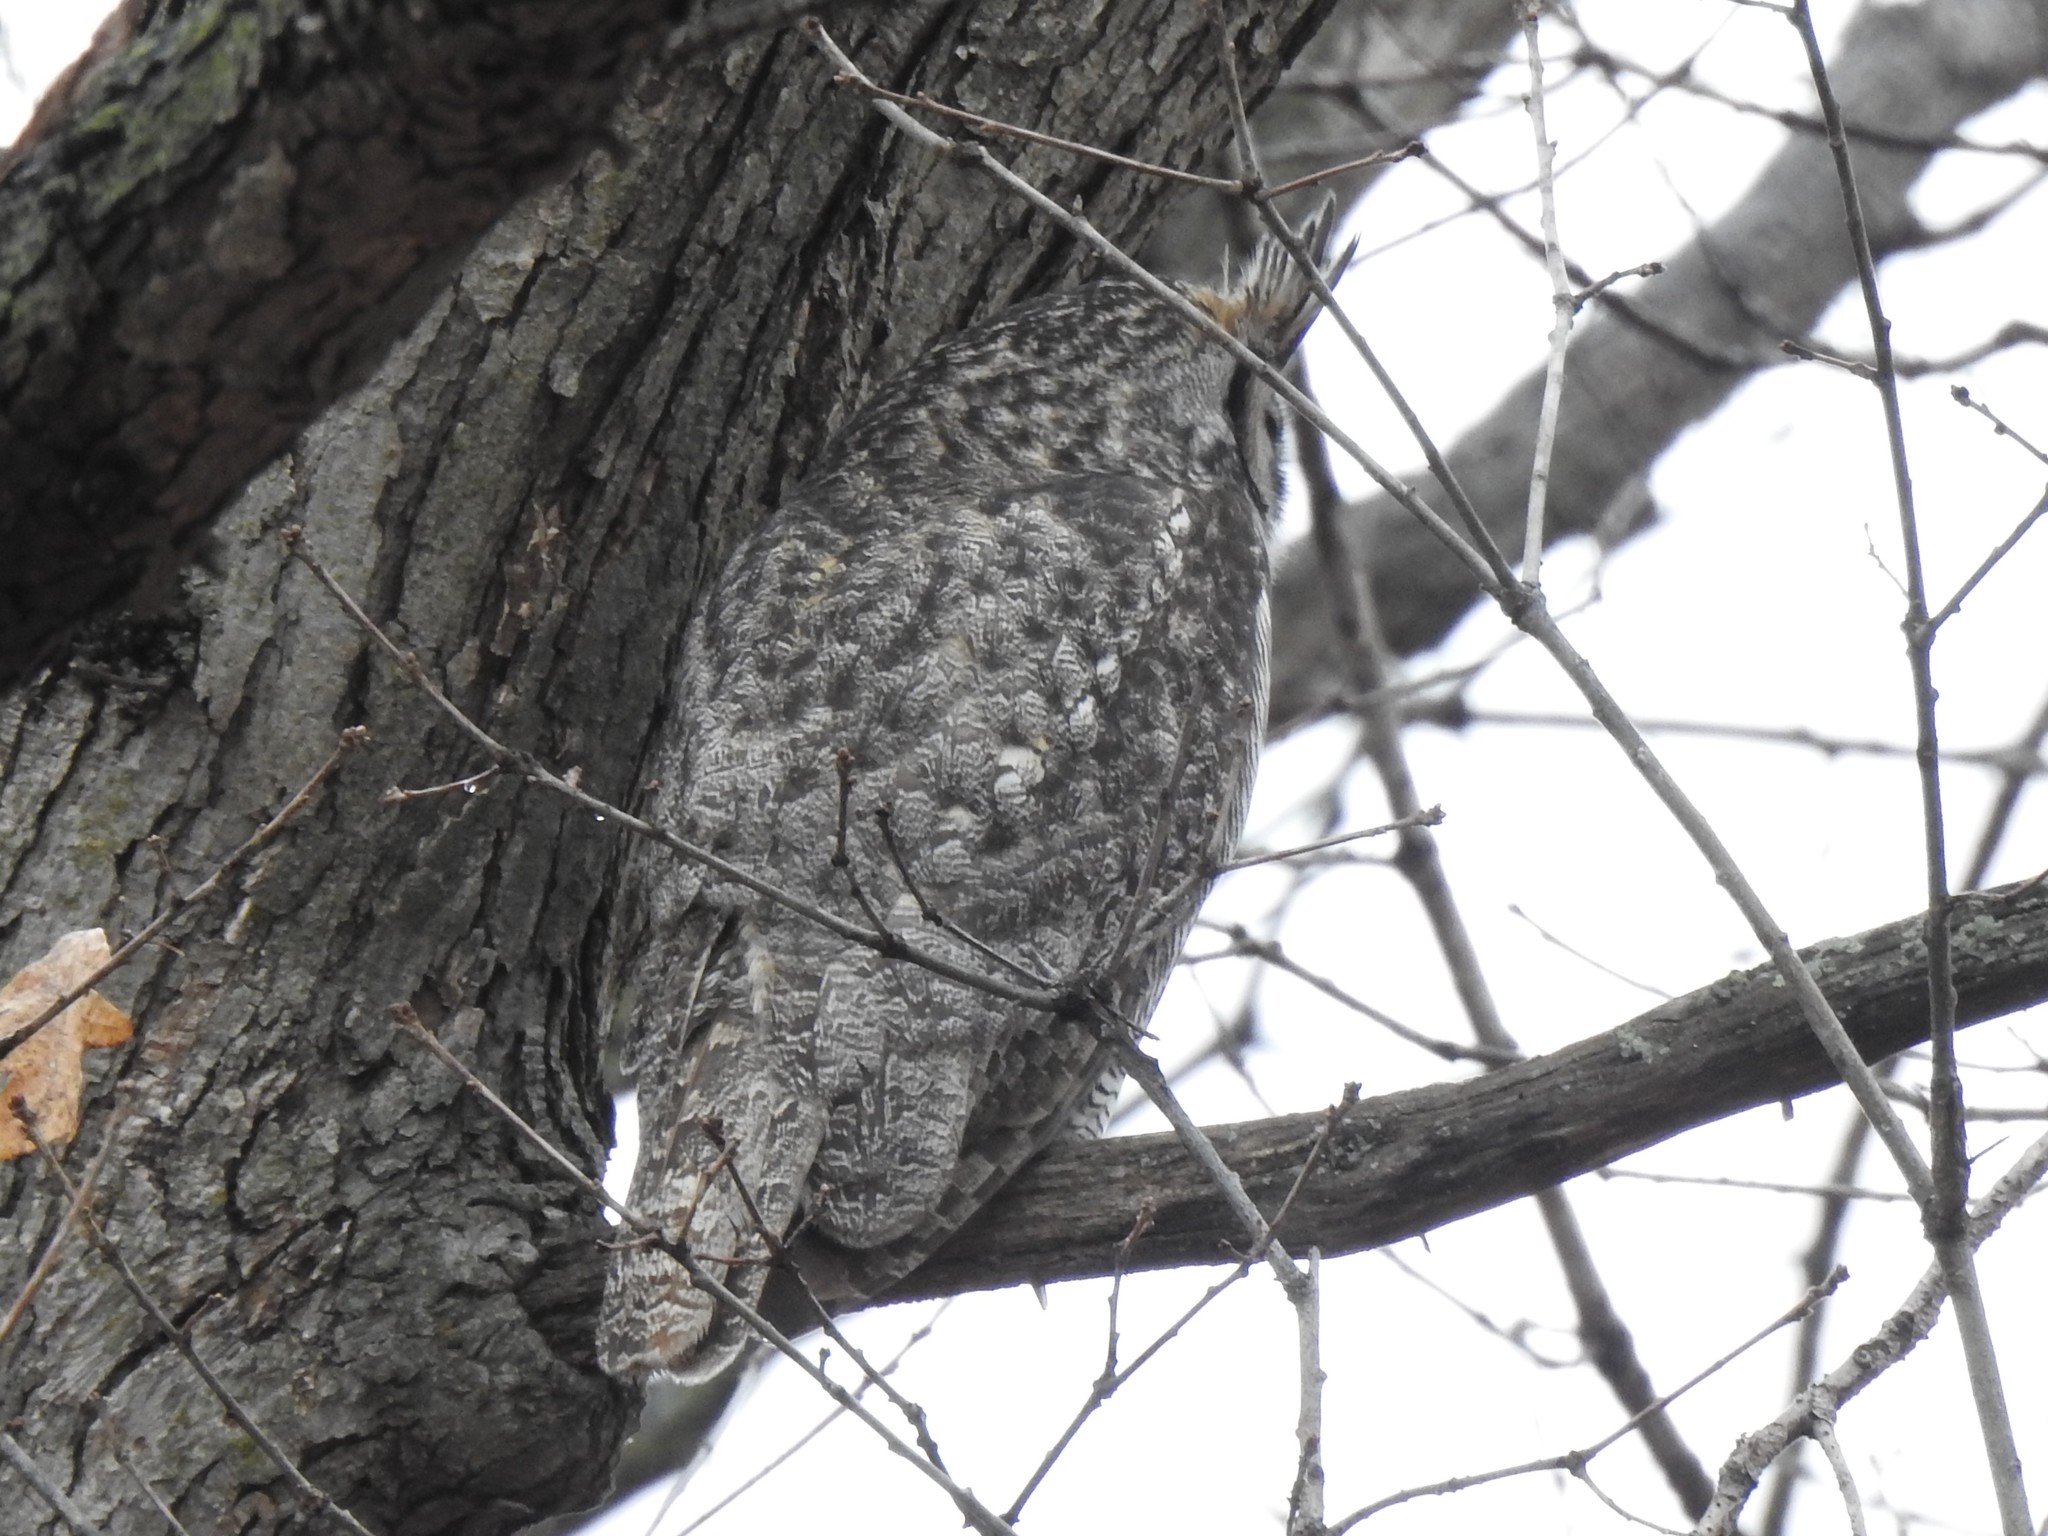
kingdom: Animalia
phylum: Chordata
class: Aves
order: Strigiformes
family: Strigidae
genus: Bubo
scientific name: Bubo virginianus
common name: Great horned owl
